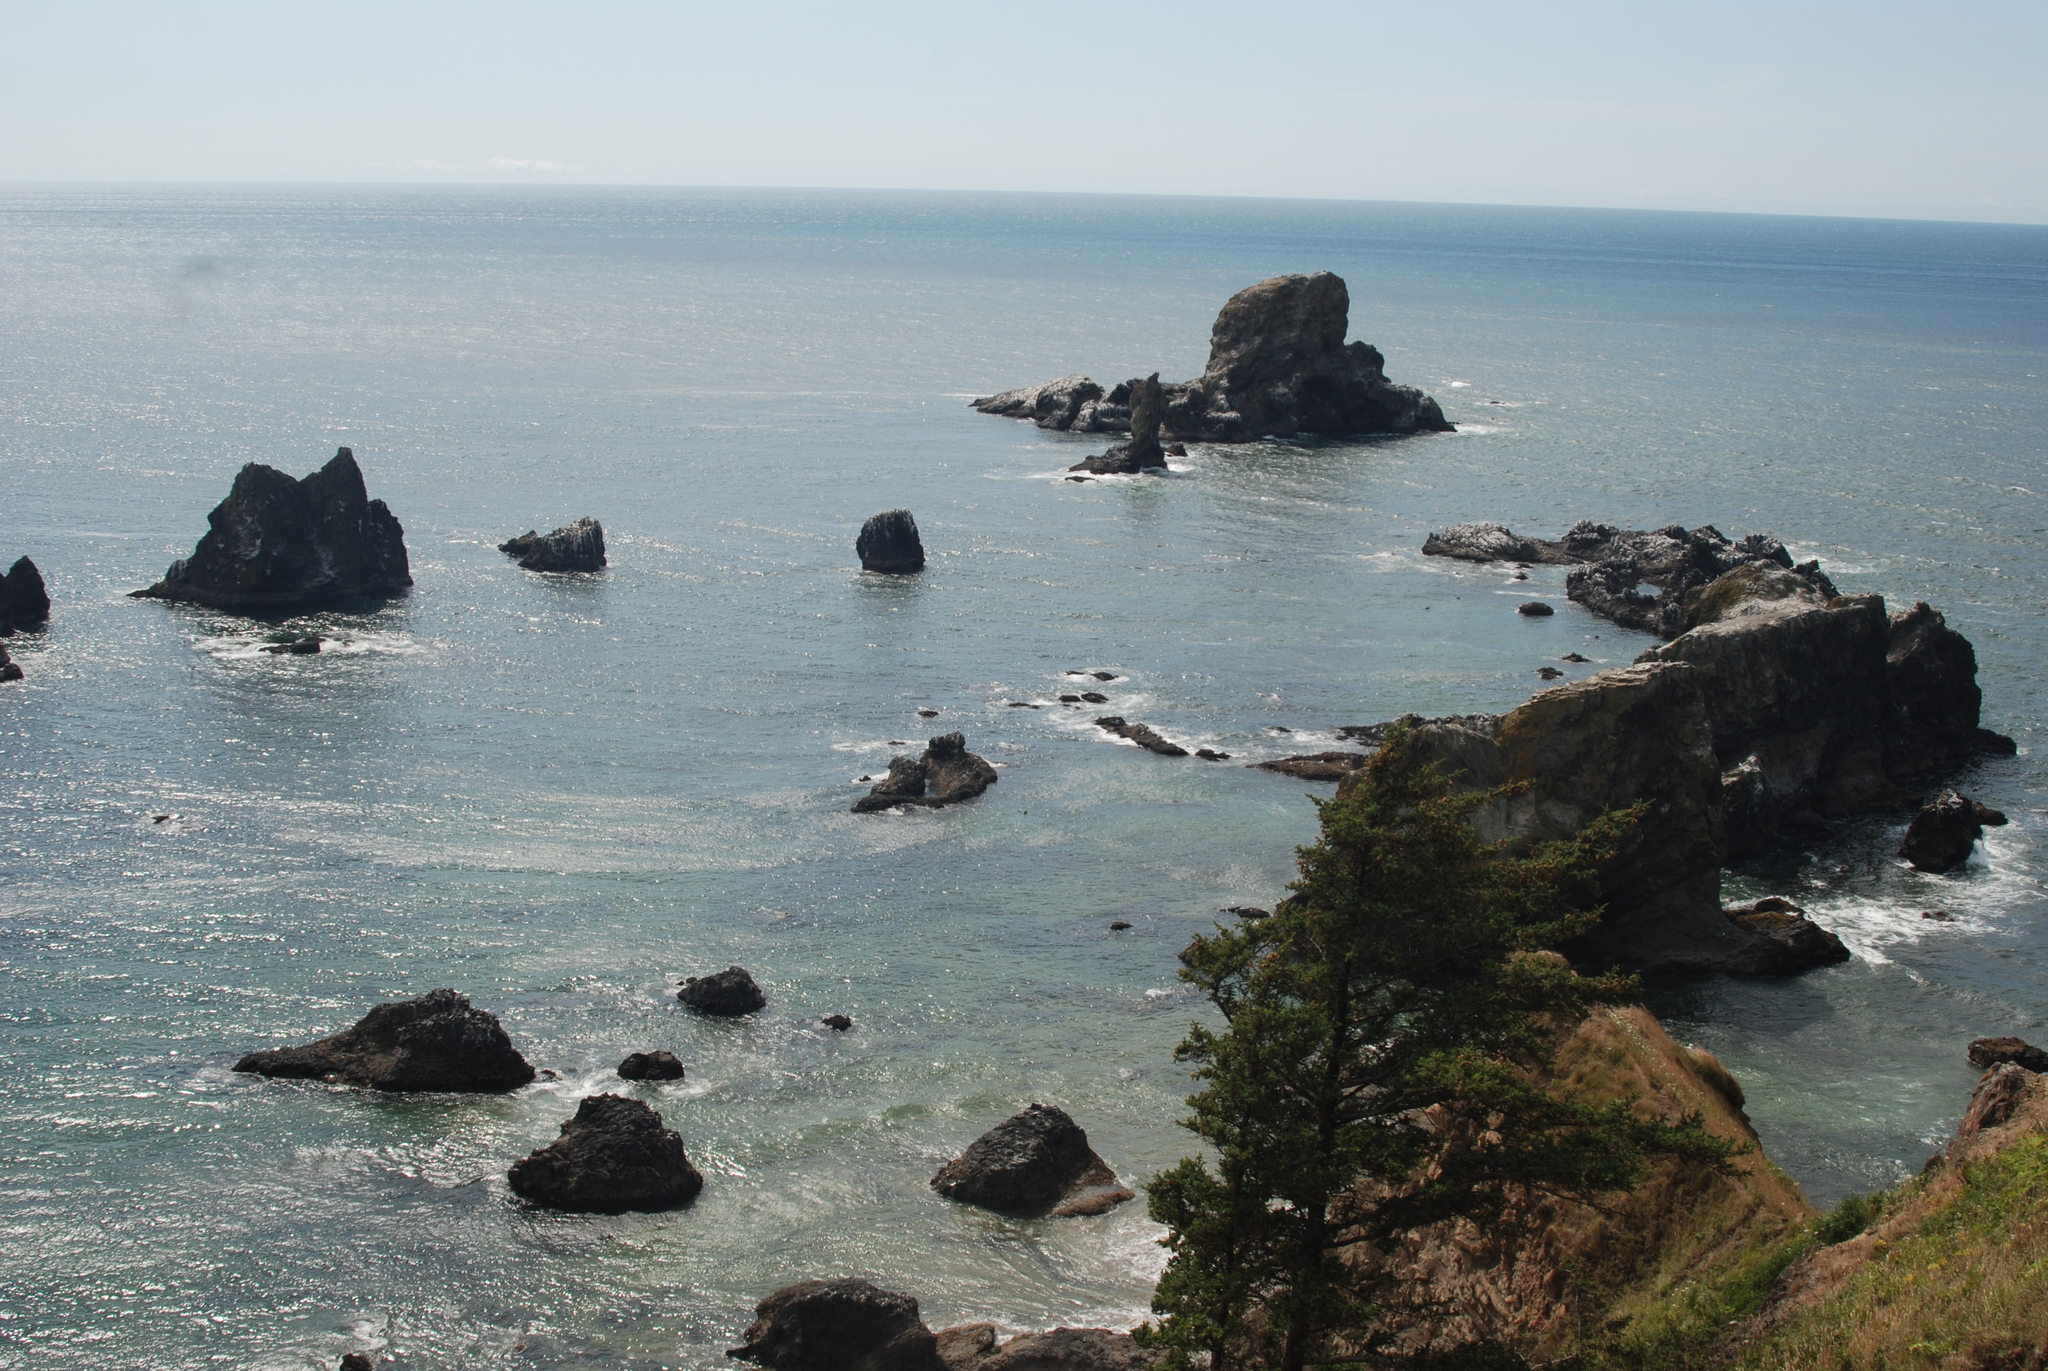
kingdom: Plantae
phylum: Tracheophyta
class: Pinopsida
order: Pinales
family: Pinaceae
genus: Picea
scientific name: Picea sitchensis
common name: Sitka spruce
